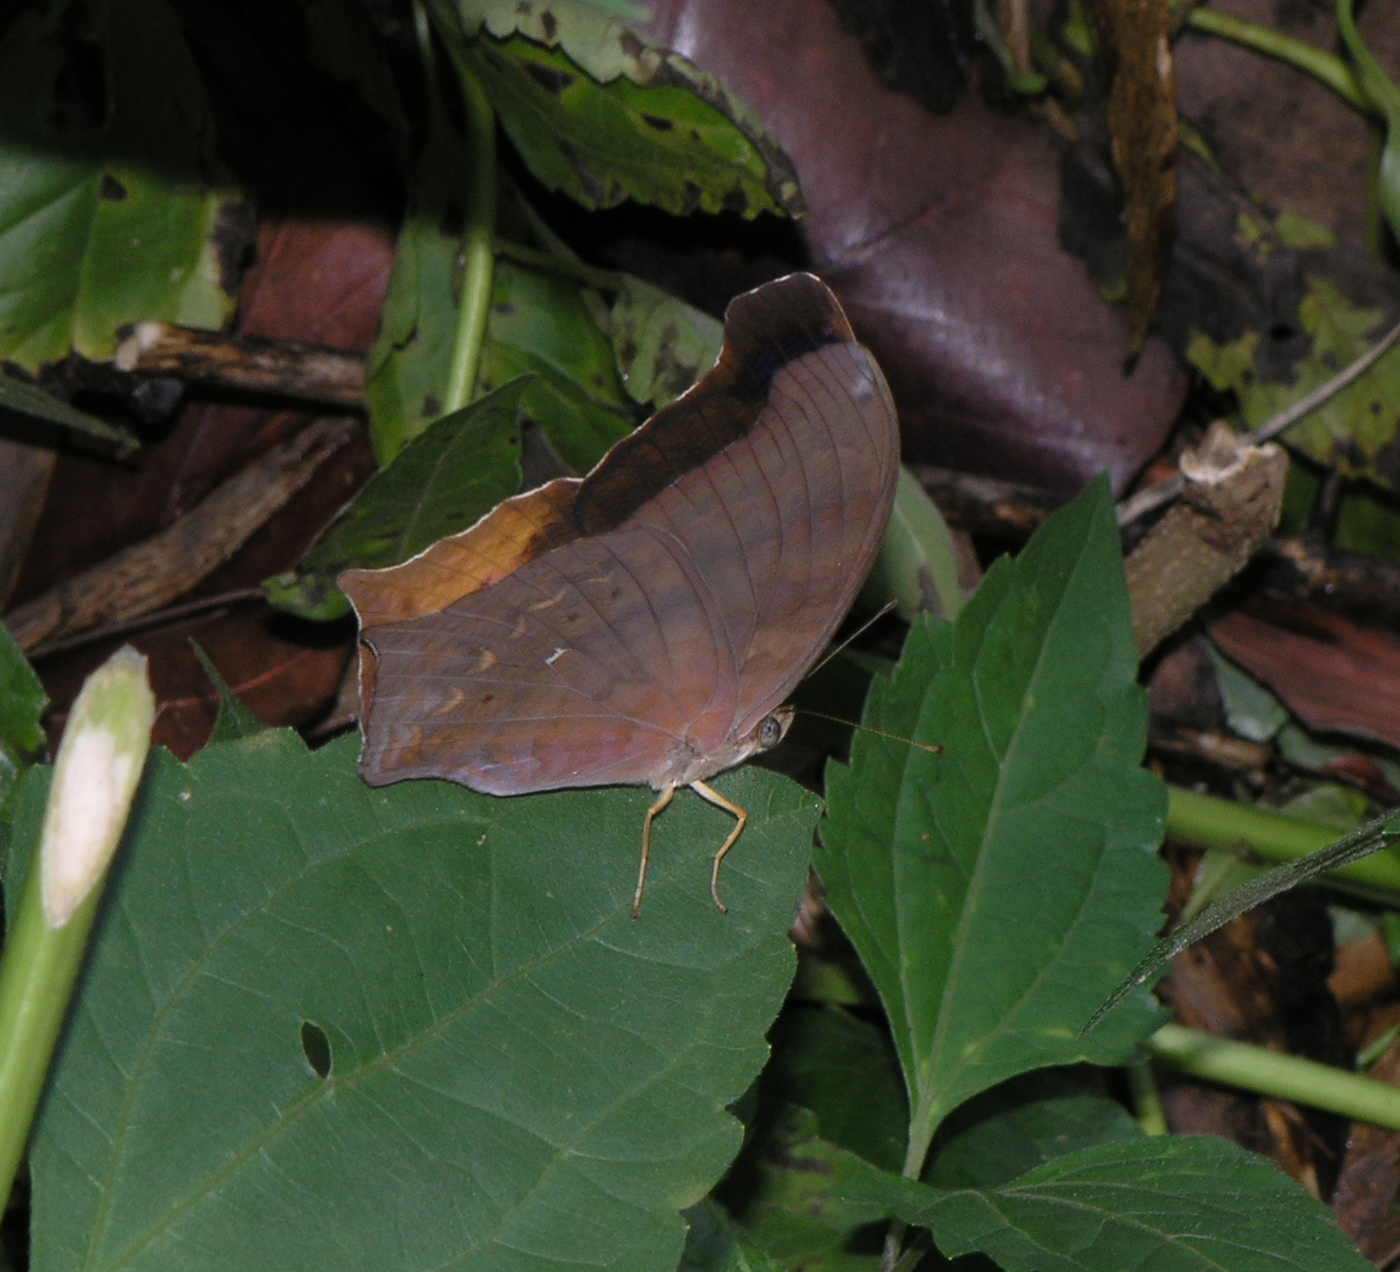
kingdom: Animalia
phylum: Arthropoda
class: Insecta
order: Lepidoptera
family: Nymphalidae
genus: Terinos
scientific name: Terinos clarissa
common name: Malayan assyrian
